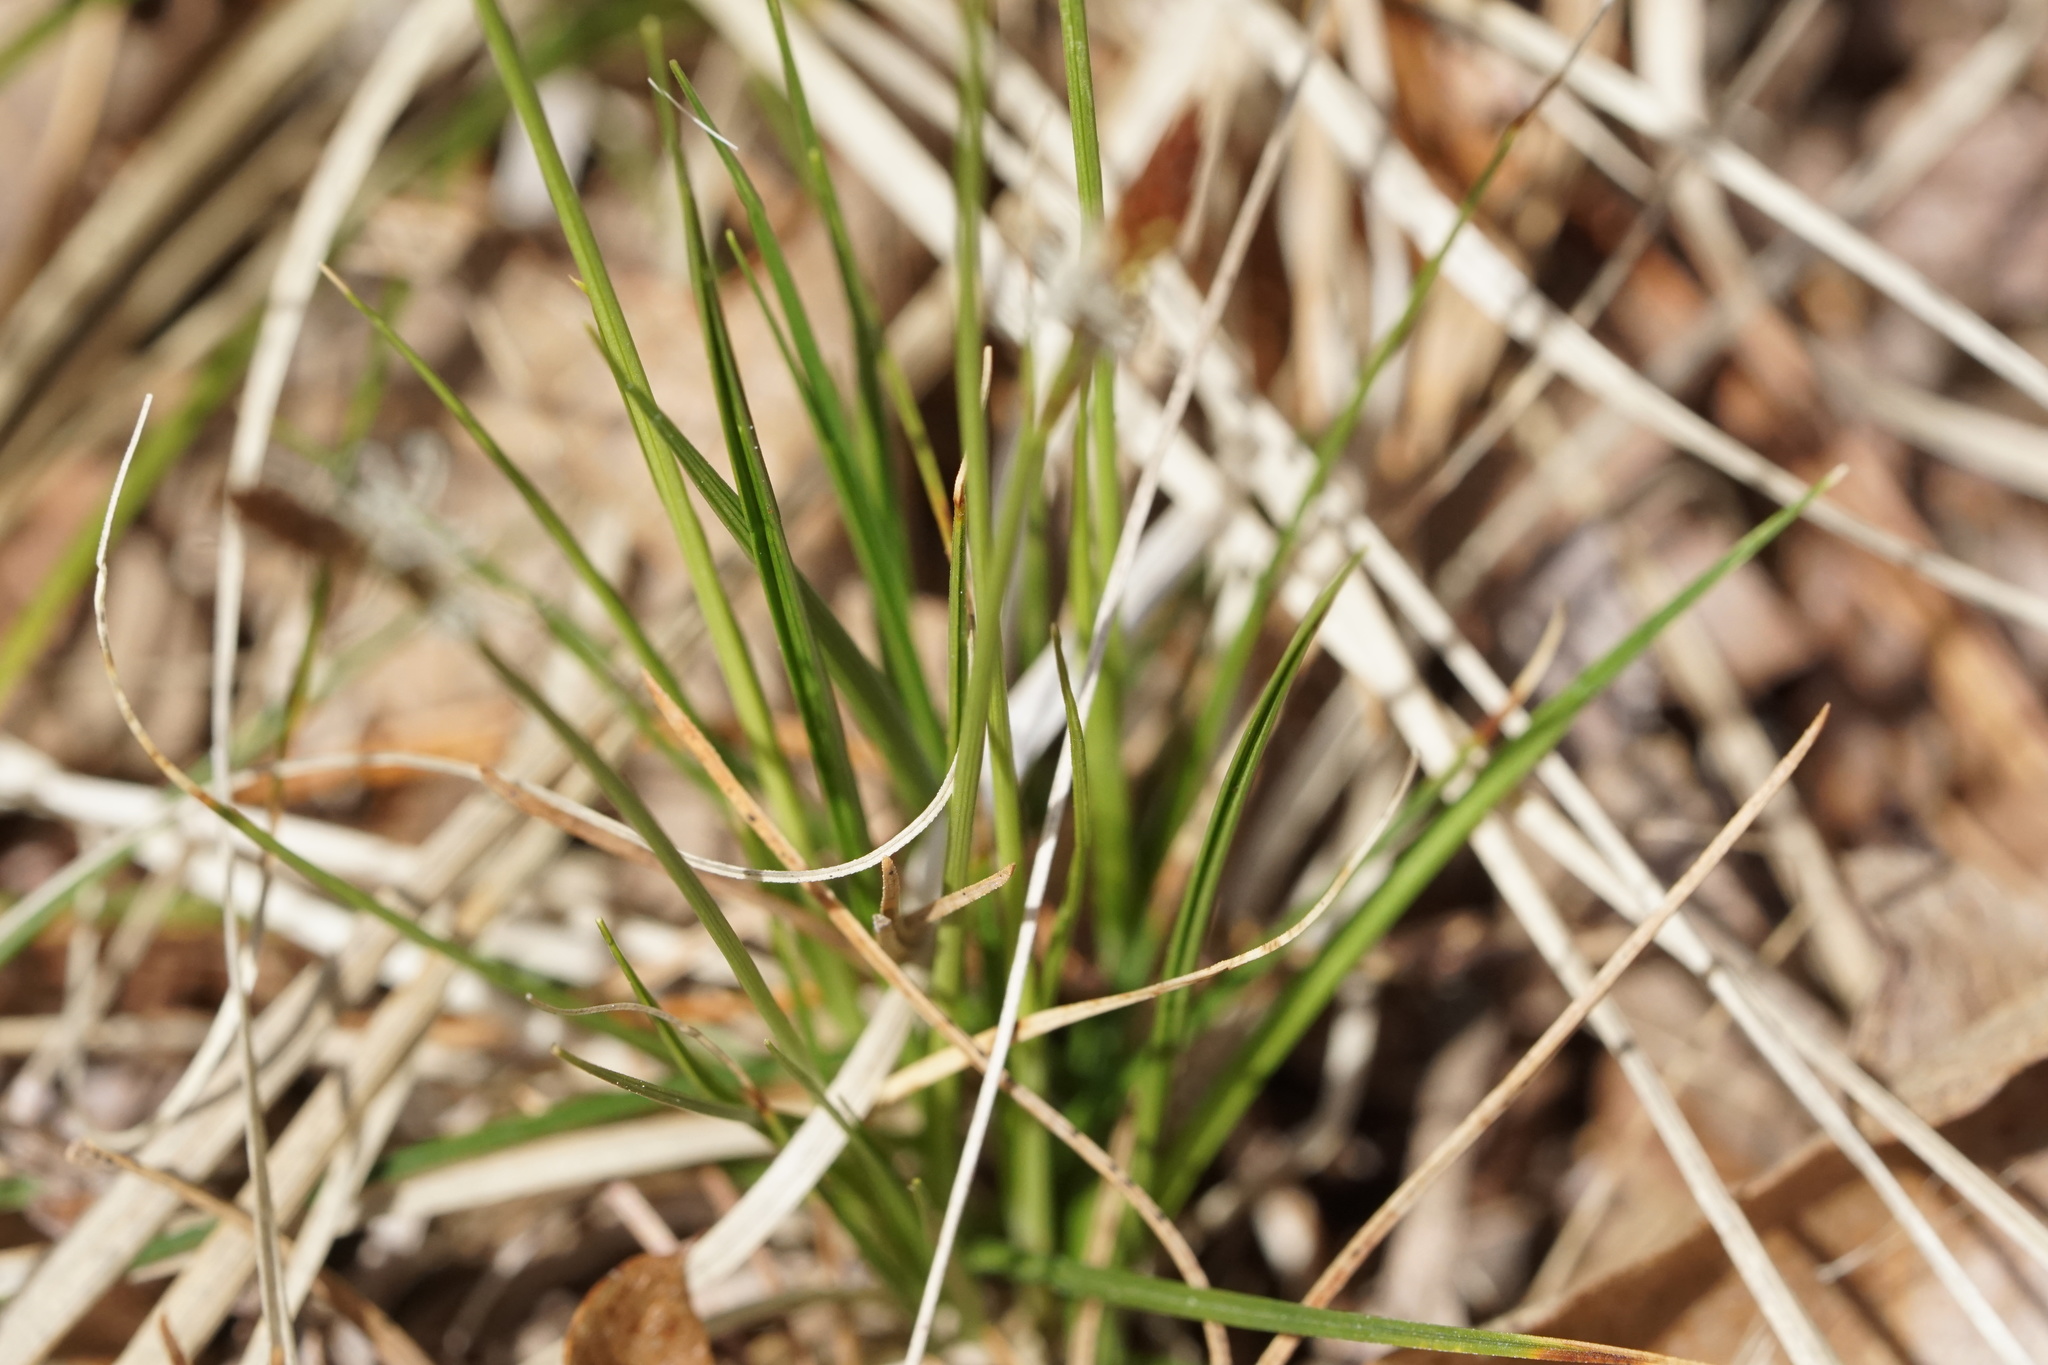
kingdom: Plantae
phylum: Tracheophyta
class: Liliopsida
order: Poales
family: Cyperaceae
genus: Carex
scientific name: Carex pensylvanica
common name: Common oak sedge
